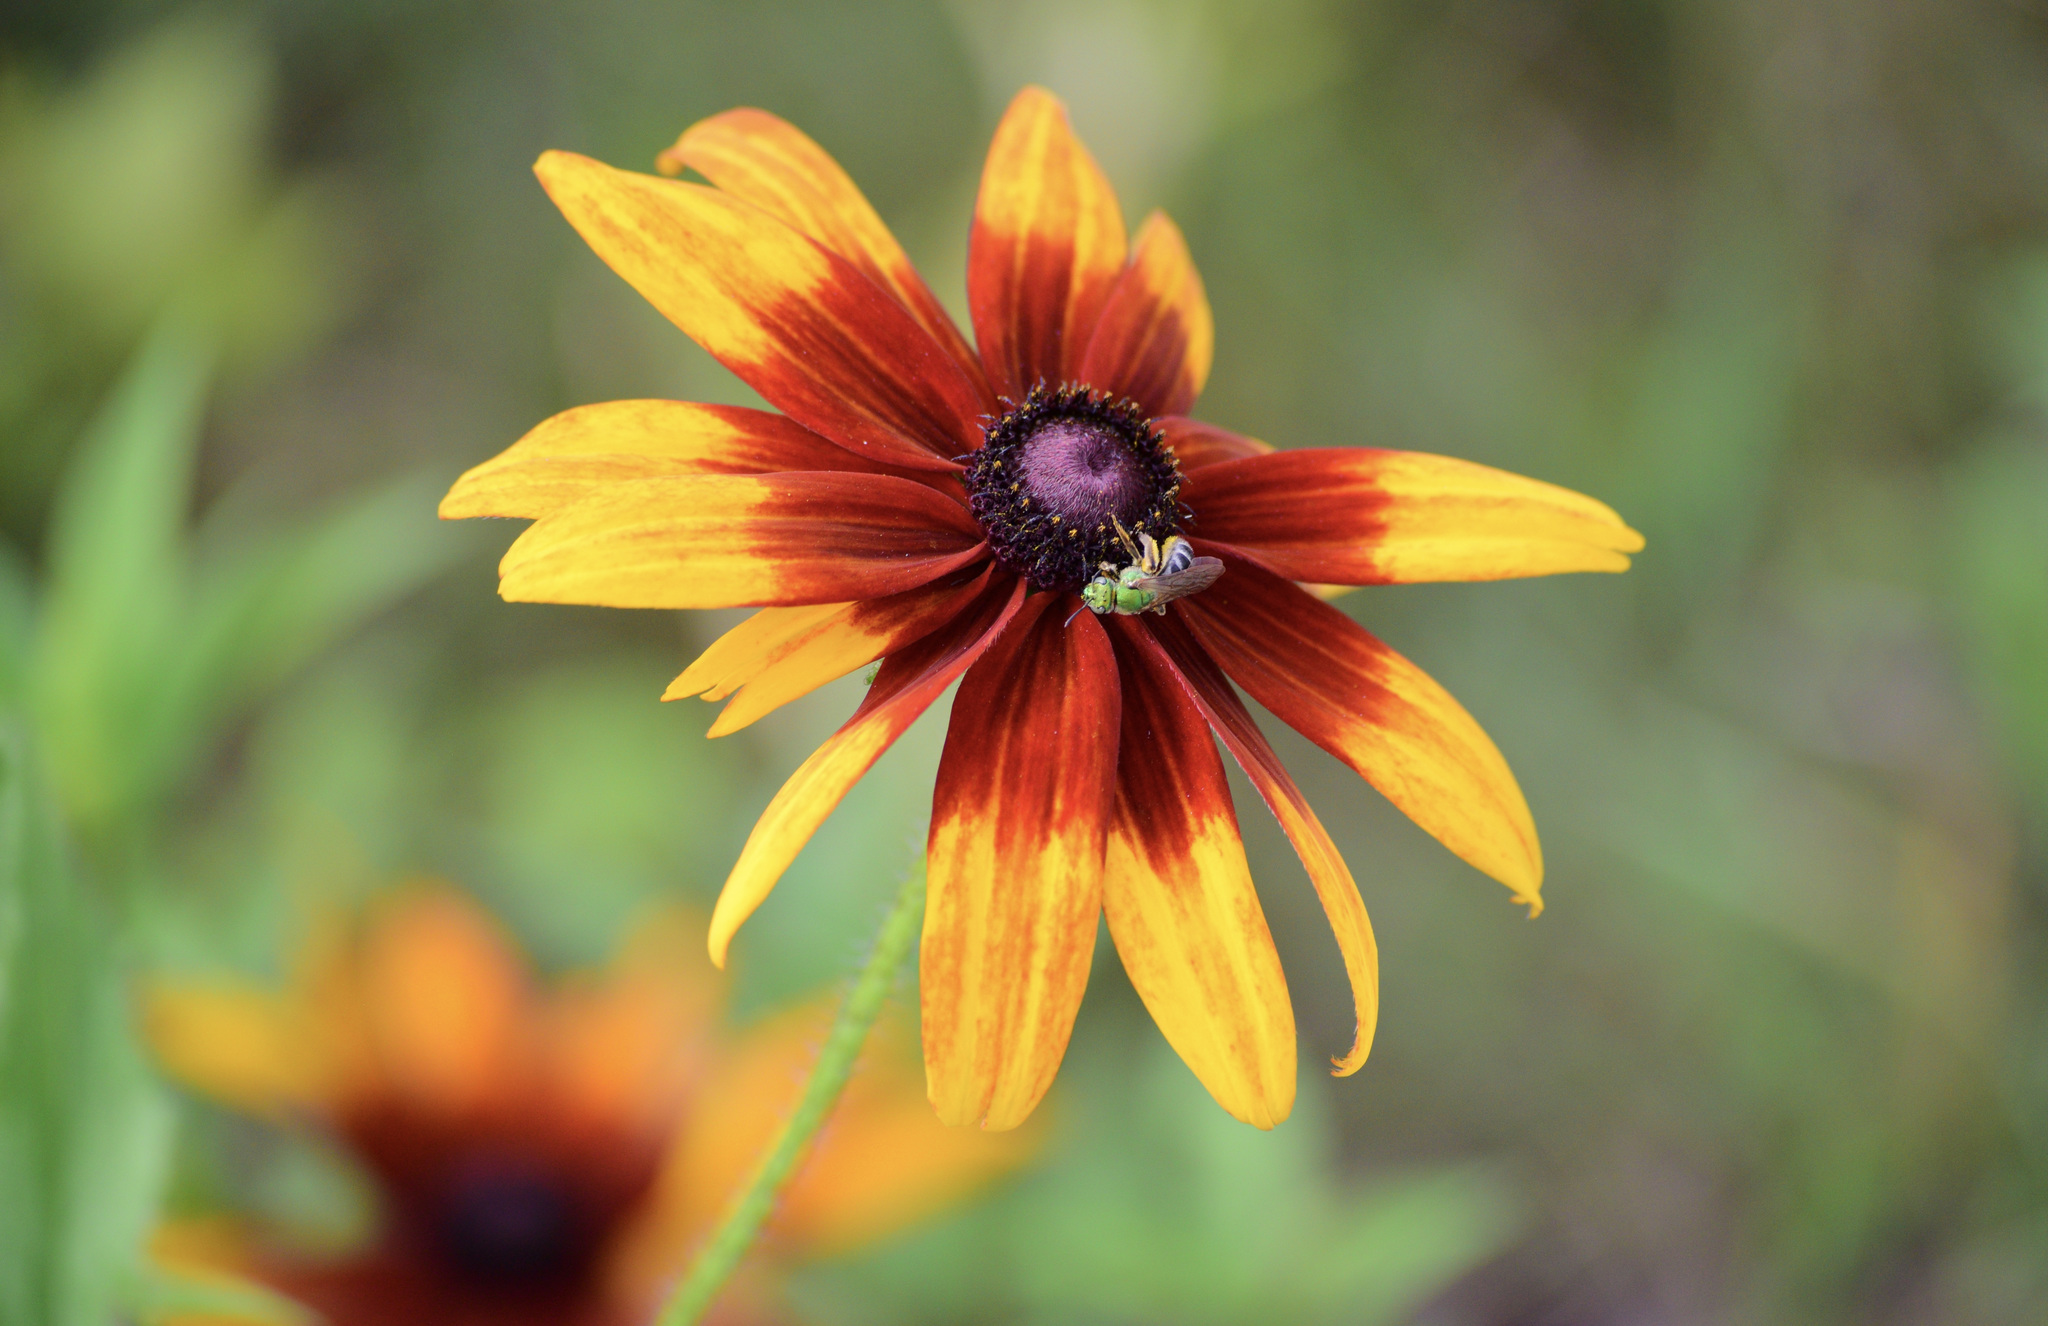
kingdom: Animalia
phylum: Arthropoda
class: Insecta
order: Hymenoptera
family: Halictidae
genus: Agapostemon
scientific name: Agapostemon virescens
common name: Bicolored striped sweat bee
